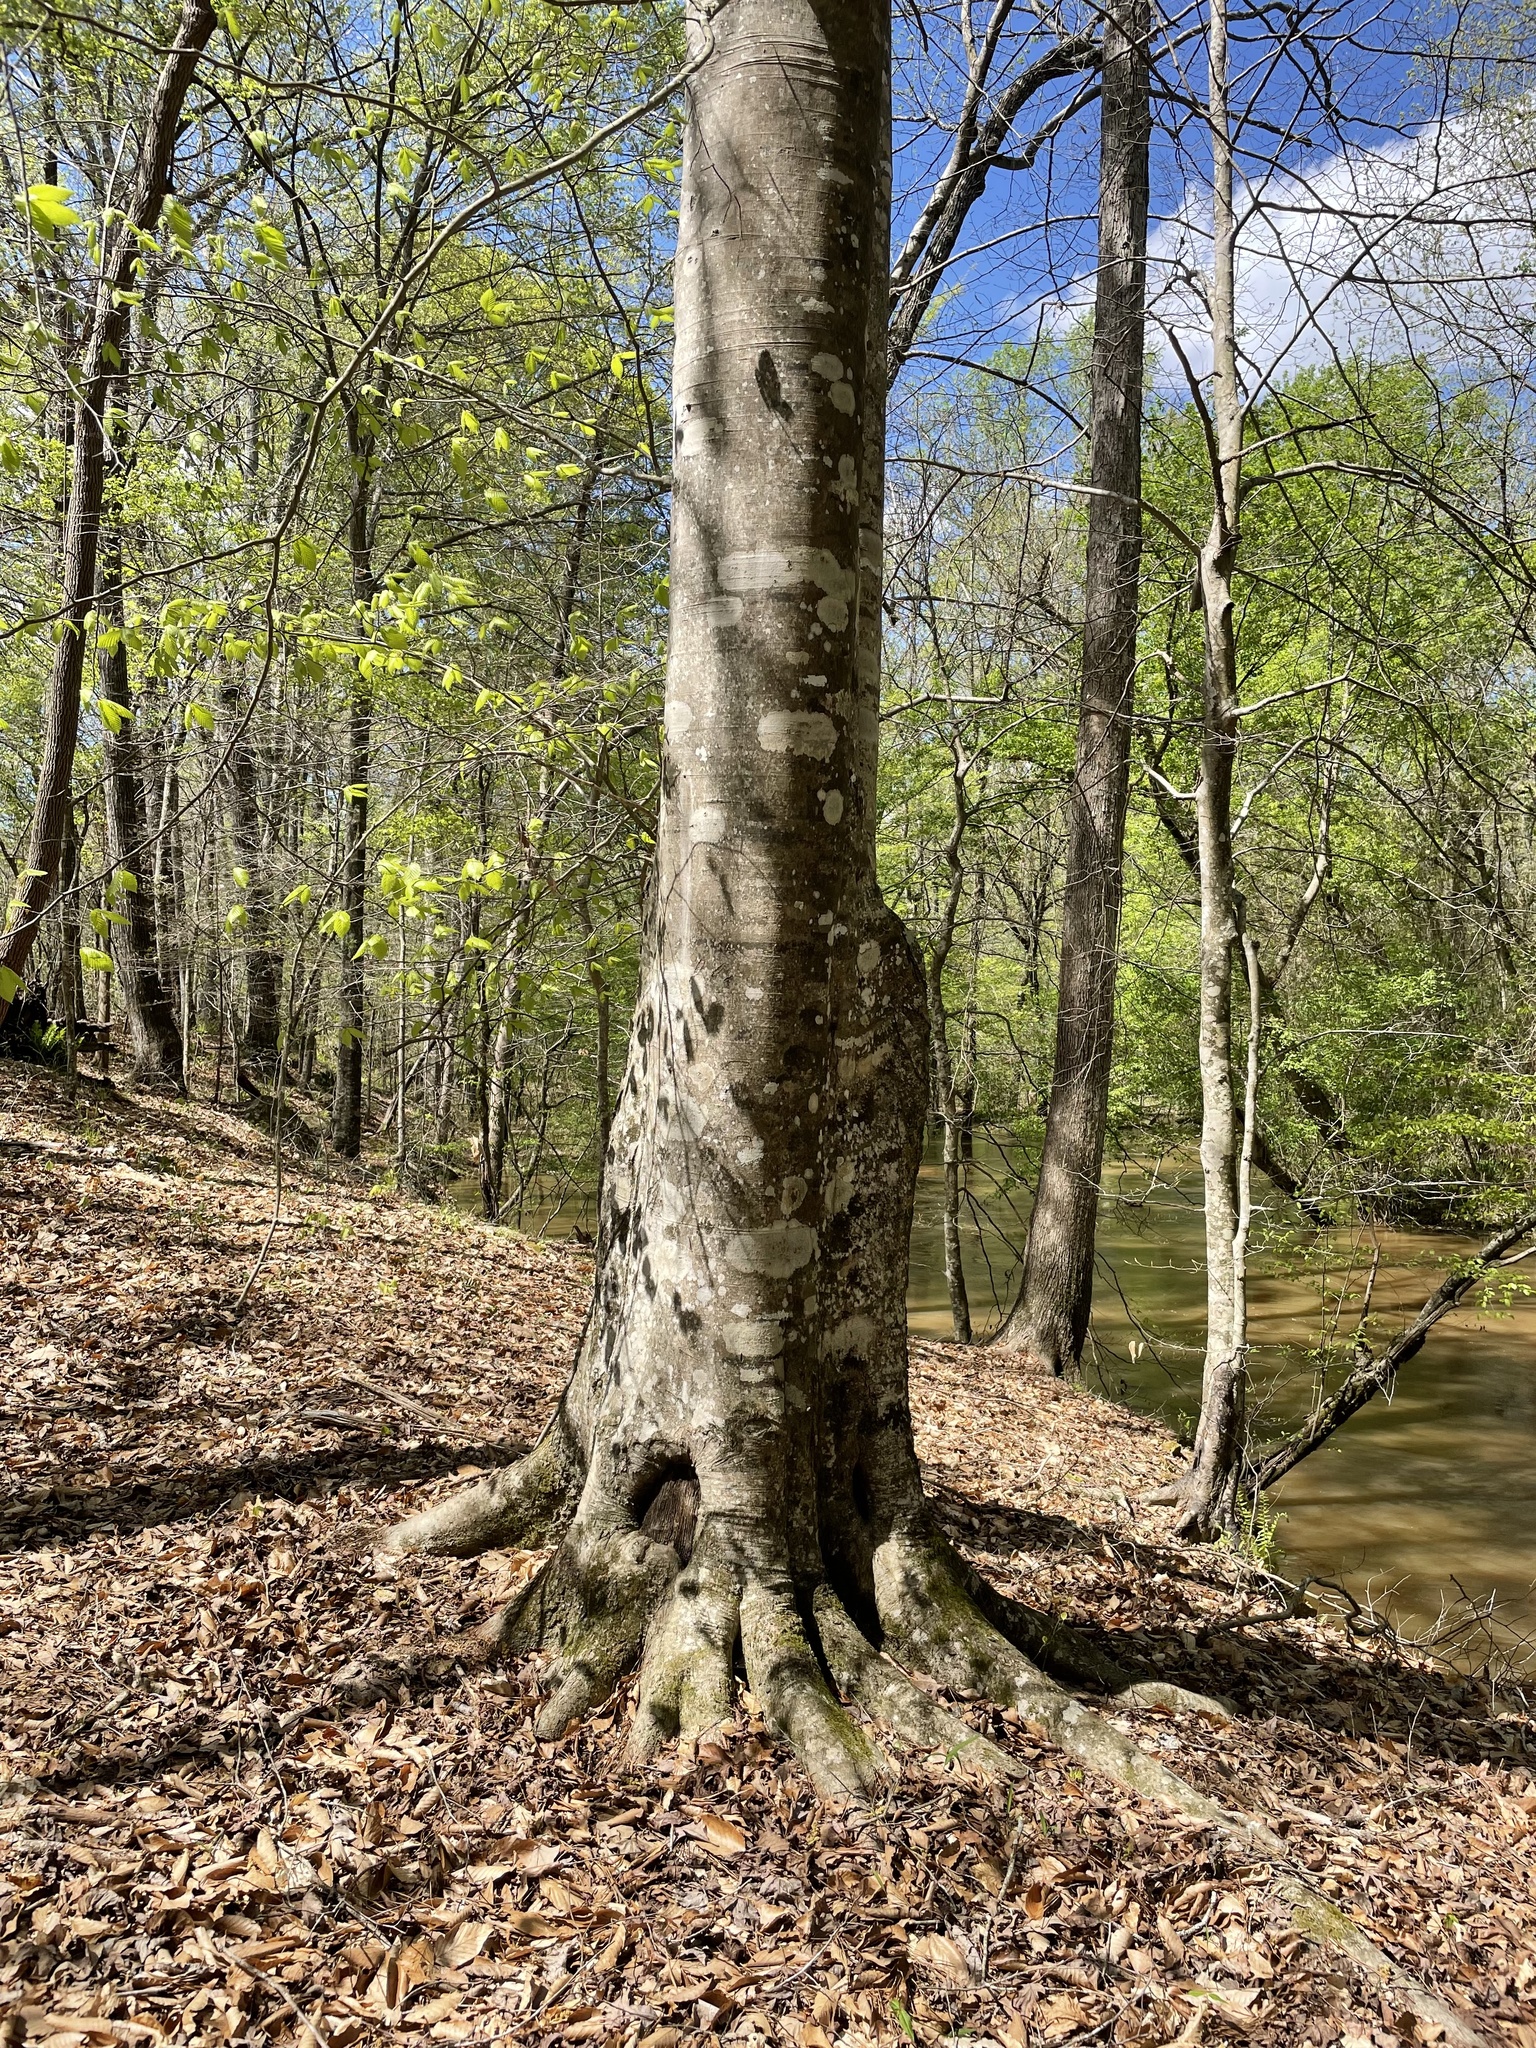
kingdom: Plantae
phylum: Tracheophyta
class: Magnoliopsida
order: Fagales
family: Fagaceae
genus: Fagus
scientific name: Fagus grandifolia
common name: American beech
